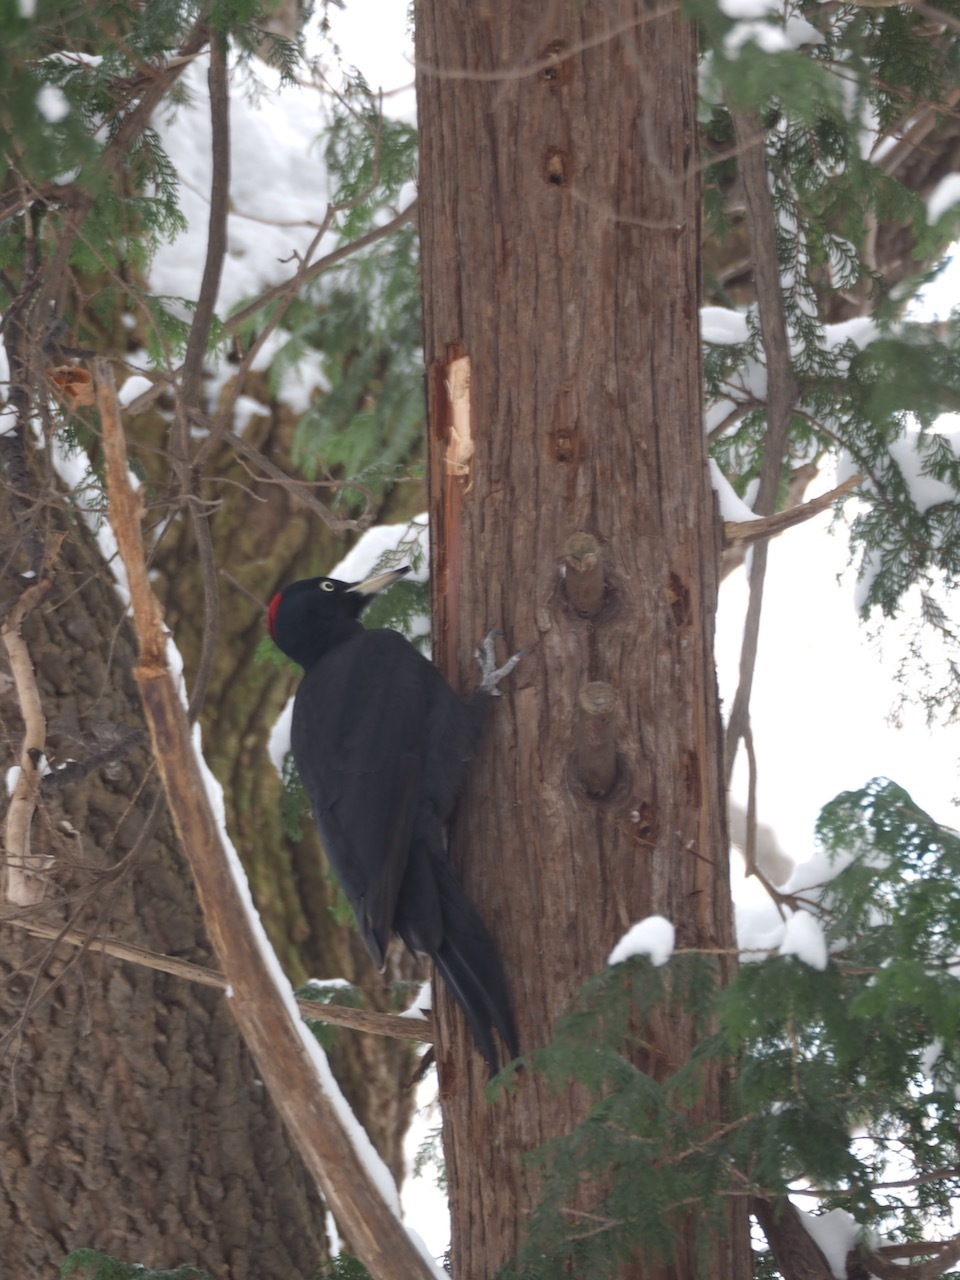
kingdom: Animalia
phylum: Chordata
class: Aves
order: Piciformes
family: Picidae
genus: Dryocopus
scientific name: Dryocopus martius
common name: Black woodpecker
